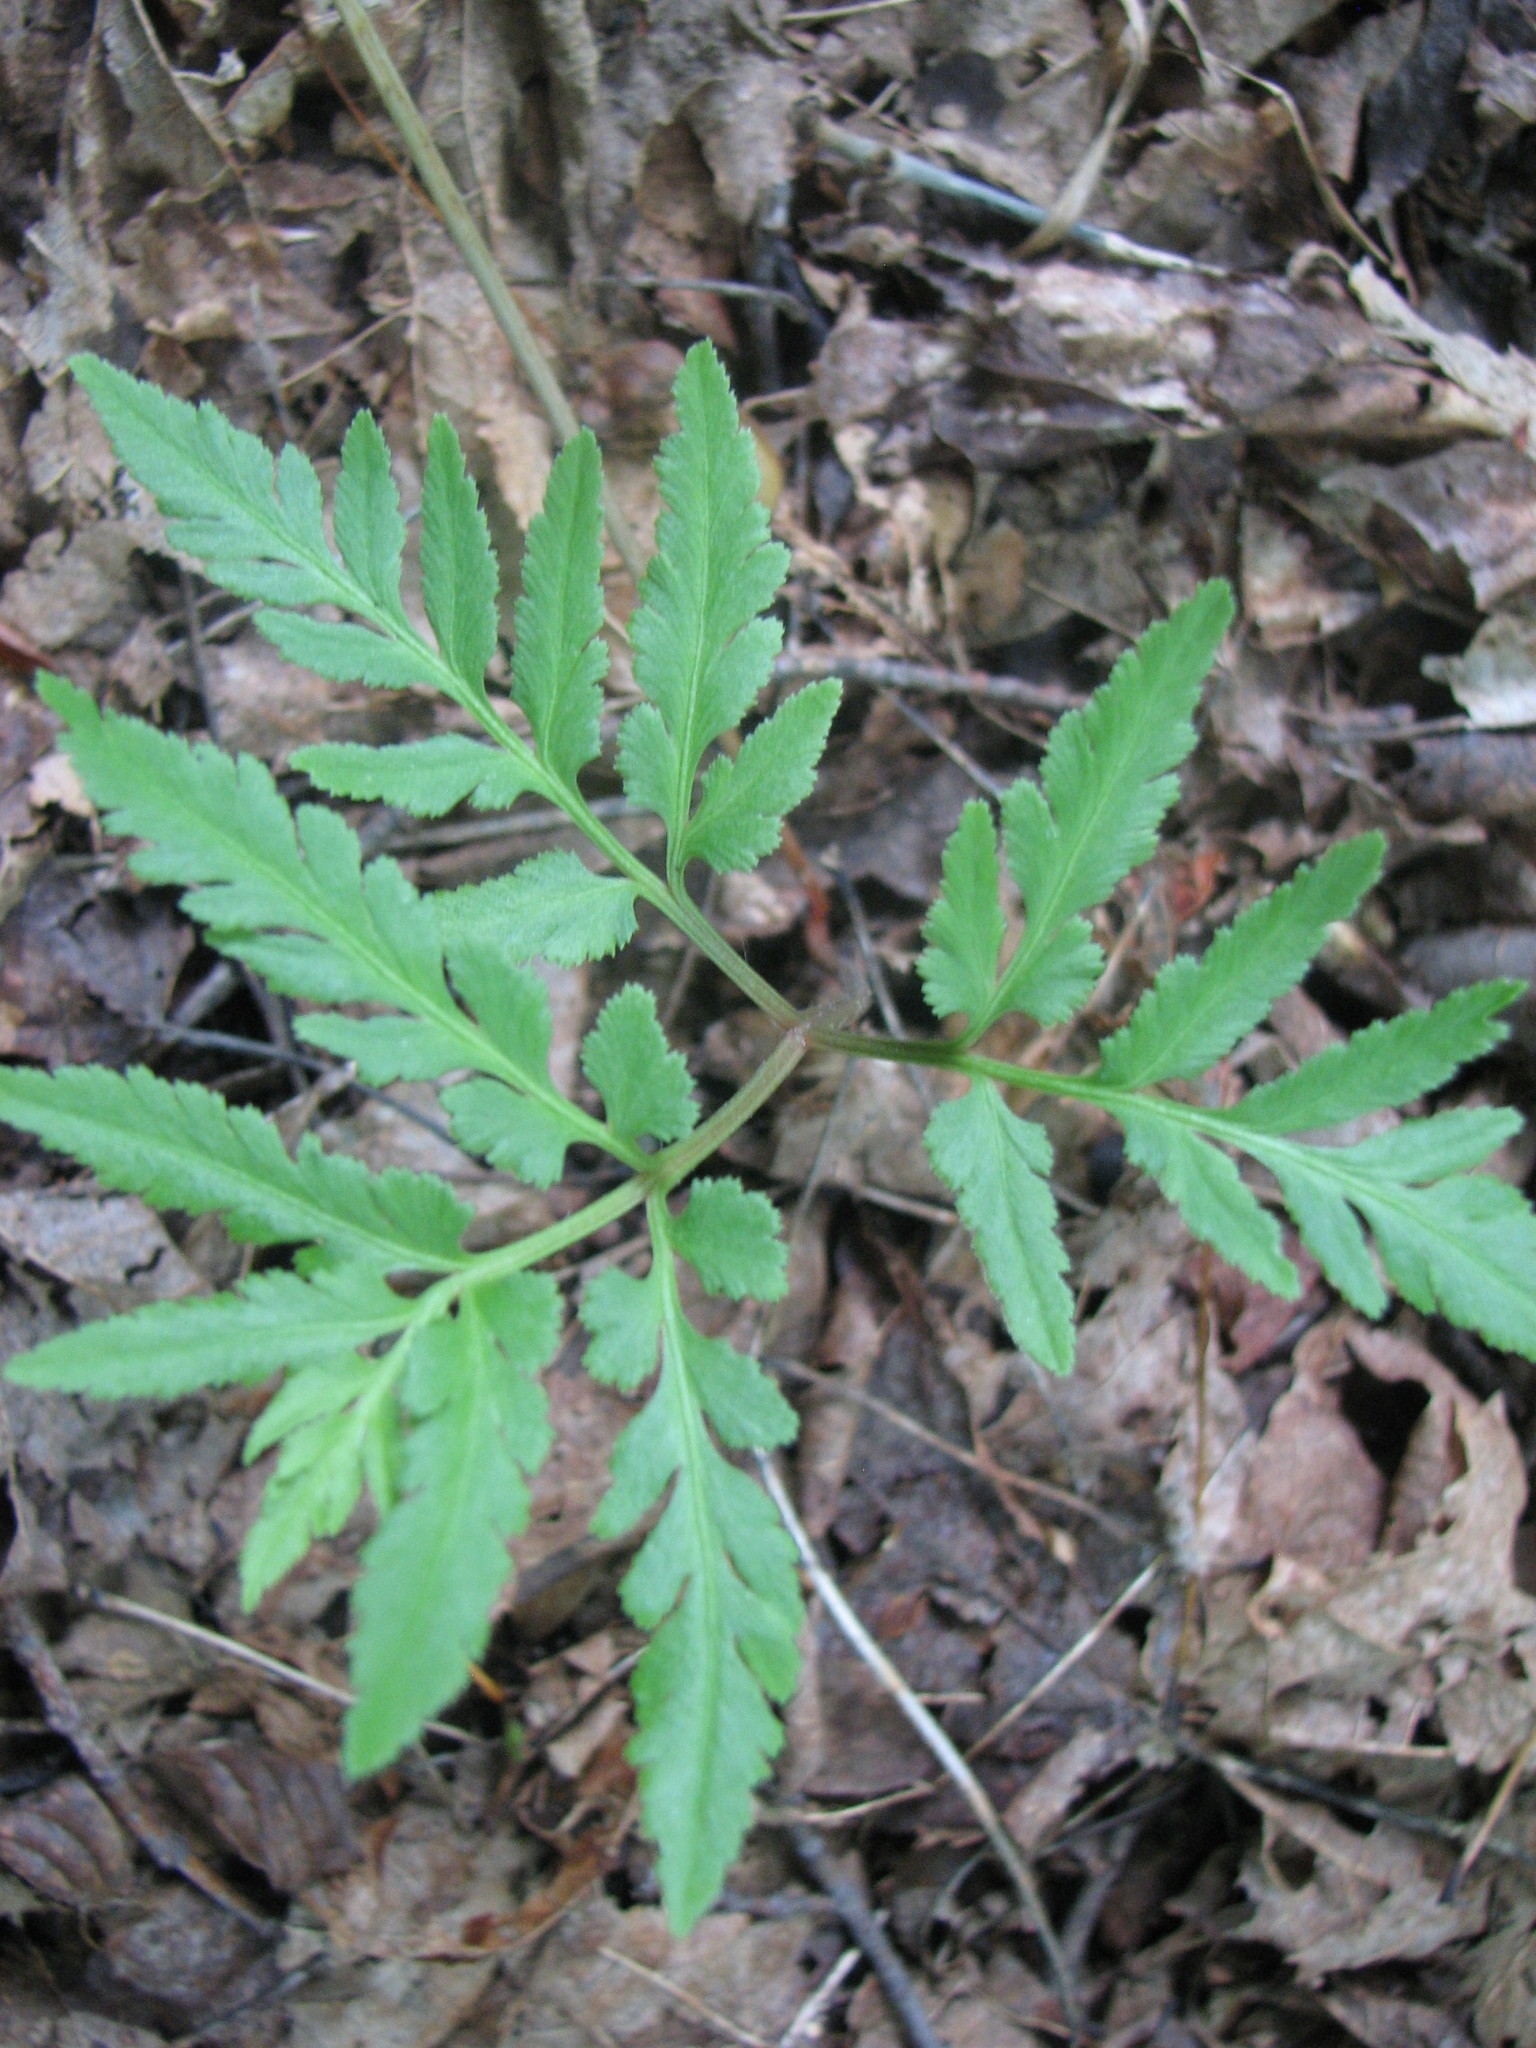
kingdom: Plantae
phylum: Tracheophyta
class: Polypodiopsida
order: Ophioglossales
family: Ophioglossaceae
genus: Sceptridium
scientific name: Sceptridium dissectum
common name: Cut-leaved grapefern
